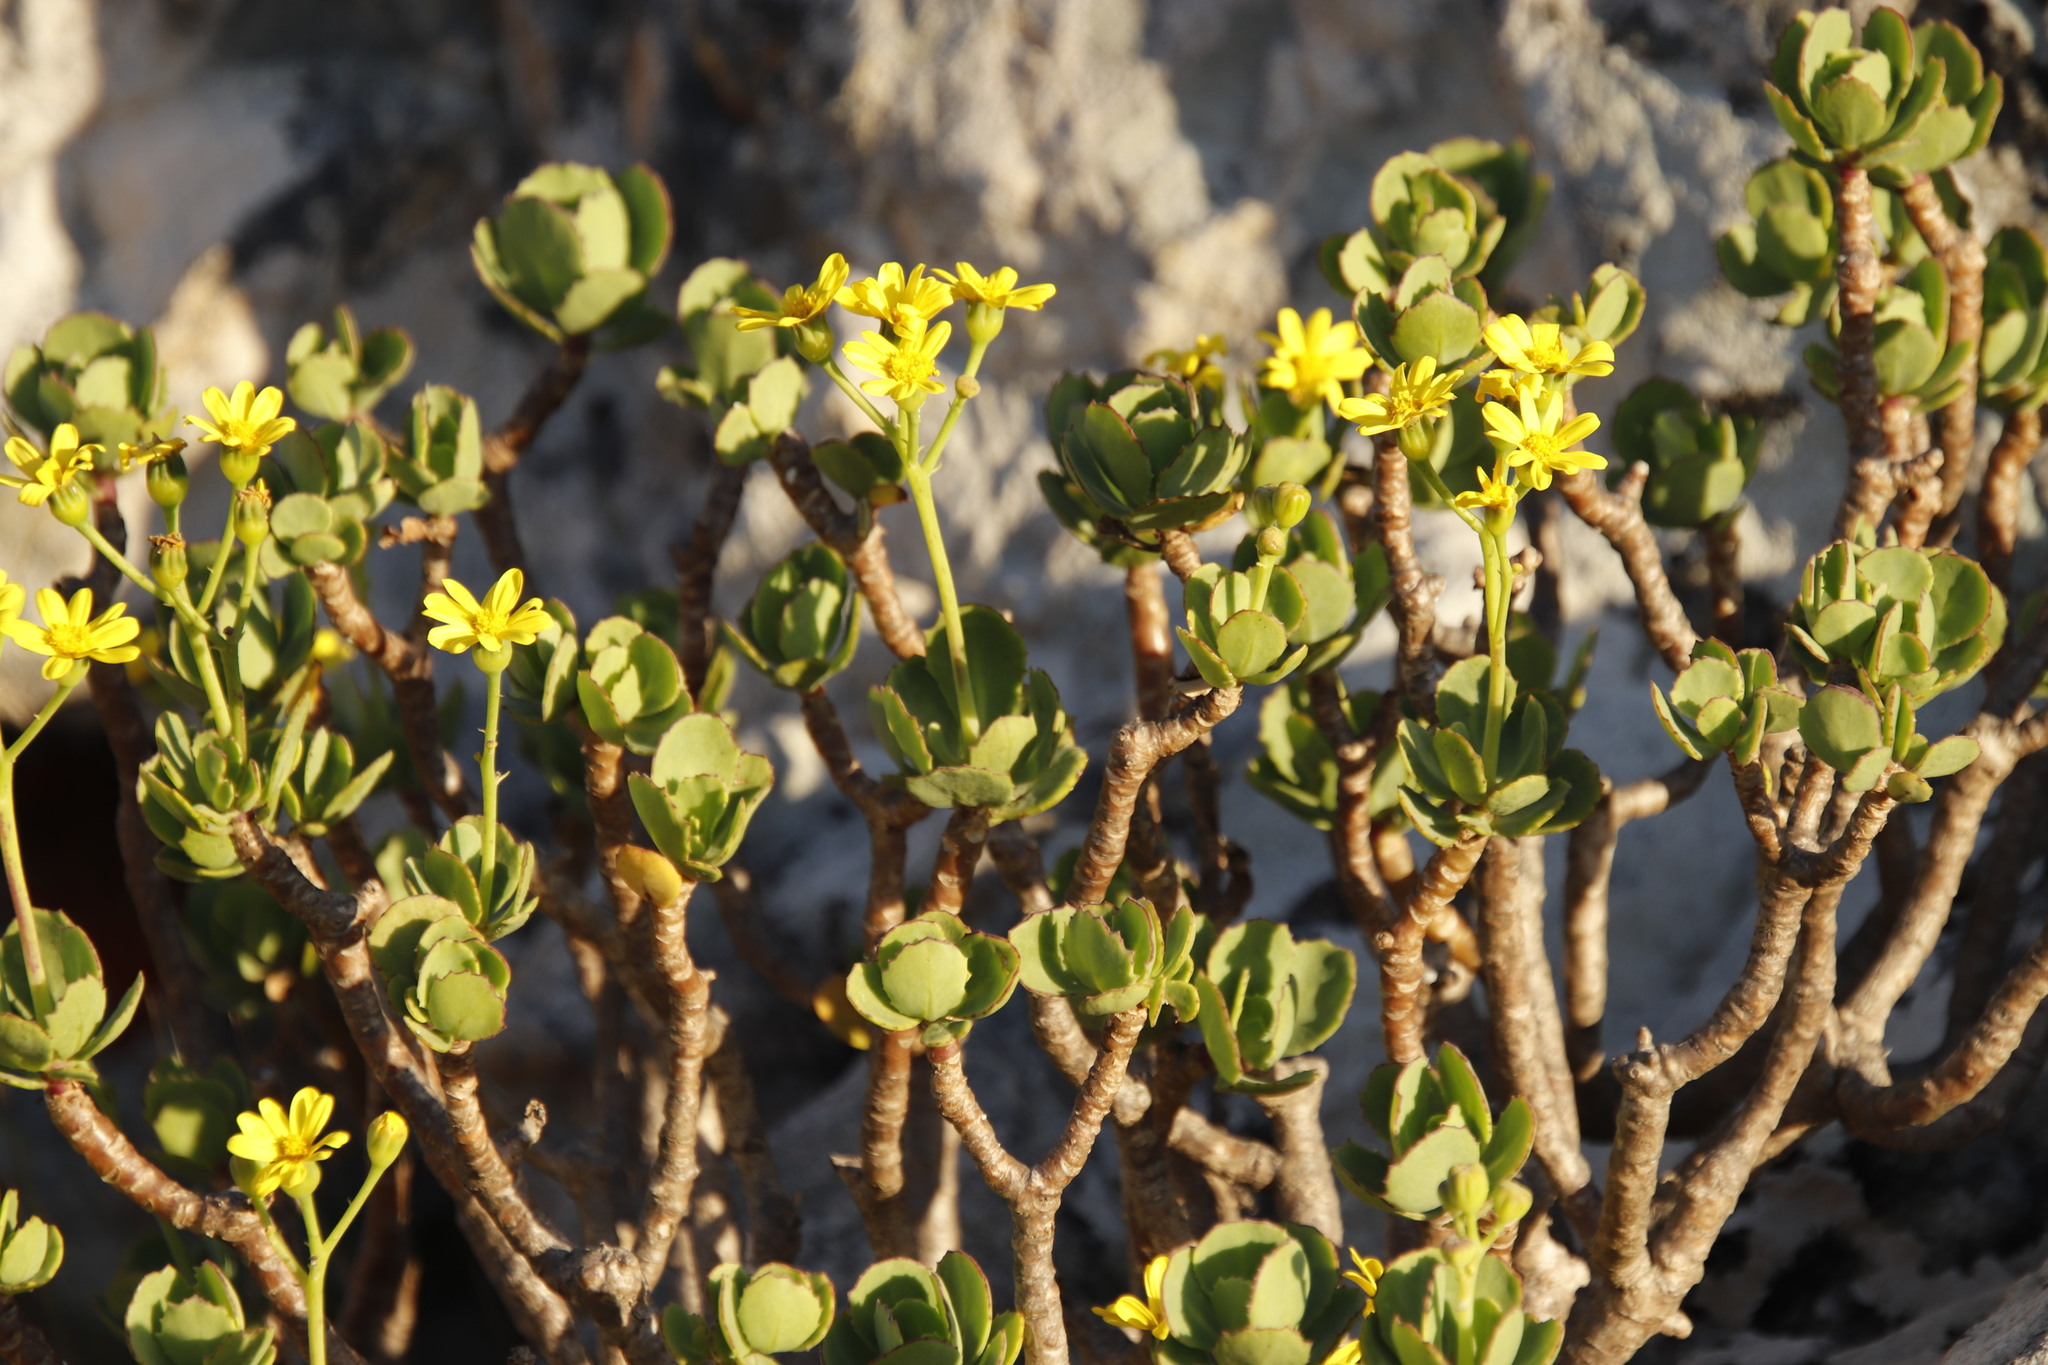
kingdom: Plantae
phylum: Tracheophyta
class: Magnoliopsida
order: Asterales
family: Asteraceae
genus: Othonna
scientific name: Othonna dentata
